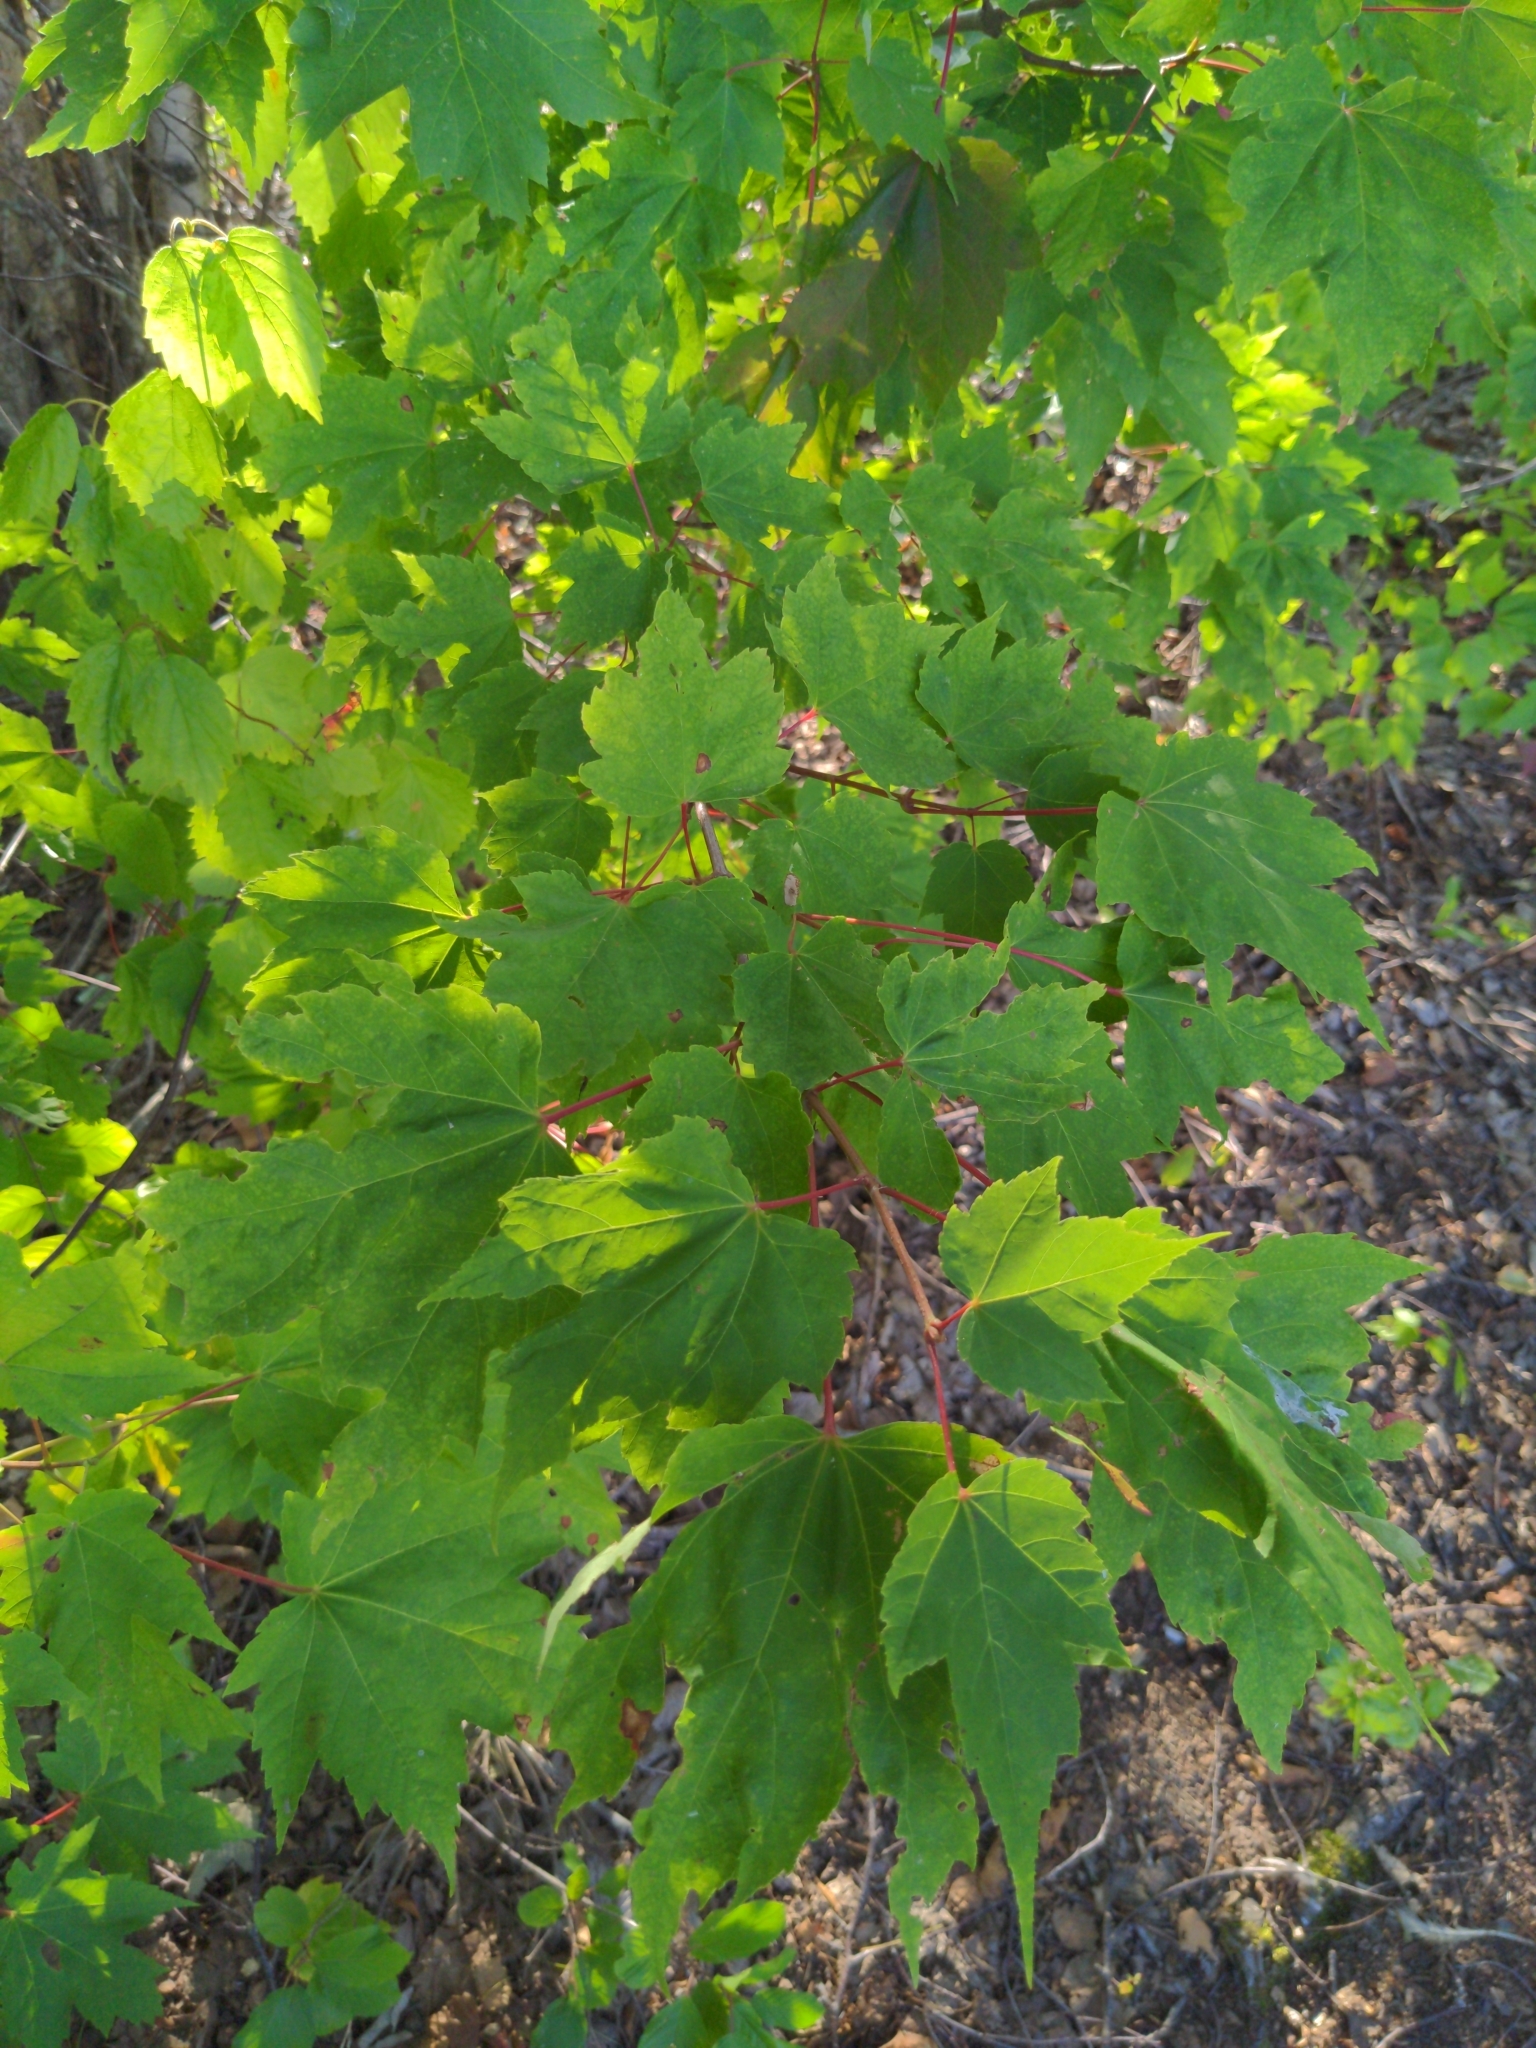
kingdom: Plantae
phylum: Tracheophyta
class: Magnoliopsida
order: Sapindales
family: Sapindaceae
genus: Acer
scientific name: Acer rubrum
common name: Red maple
